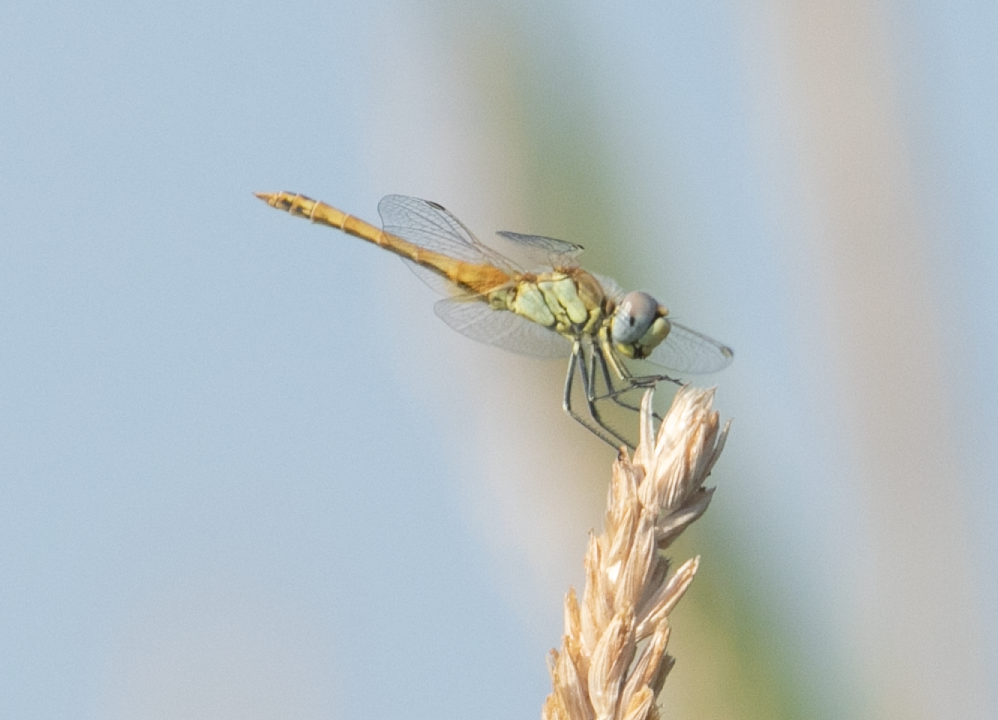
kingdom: Animalia
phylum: Arthropoda
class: Insecta
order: Odonata
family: Libellulidae
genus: Sympetrum
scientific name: Sympetrum fonscolombii
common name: Red-veined darter
